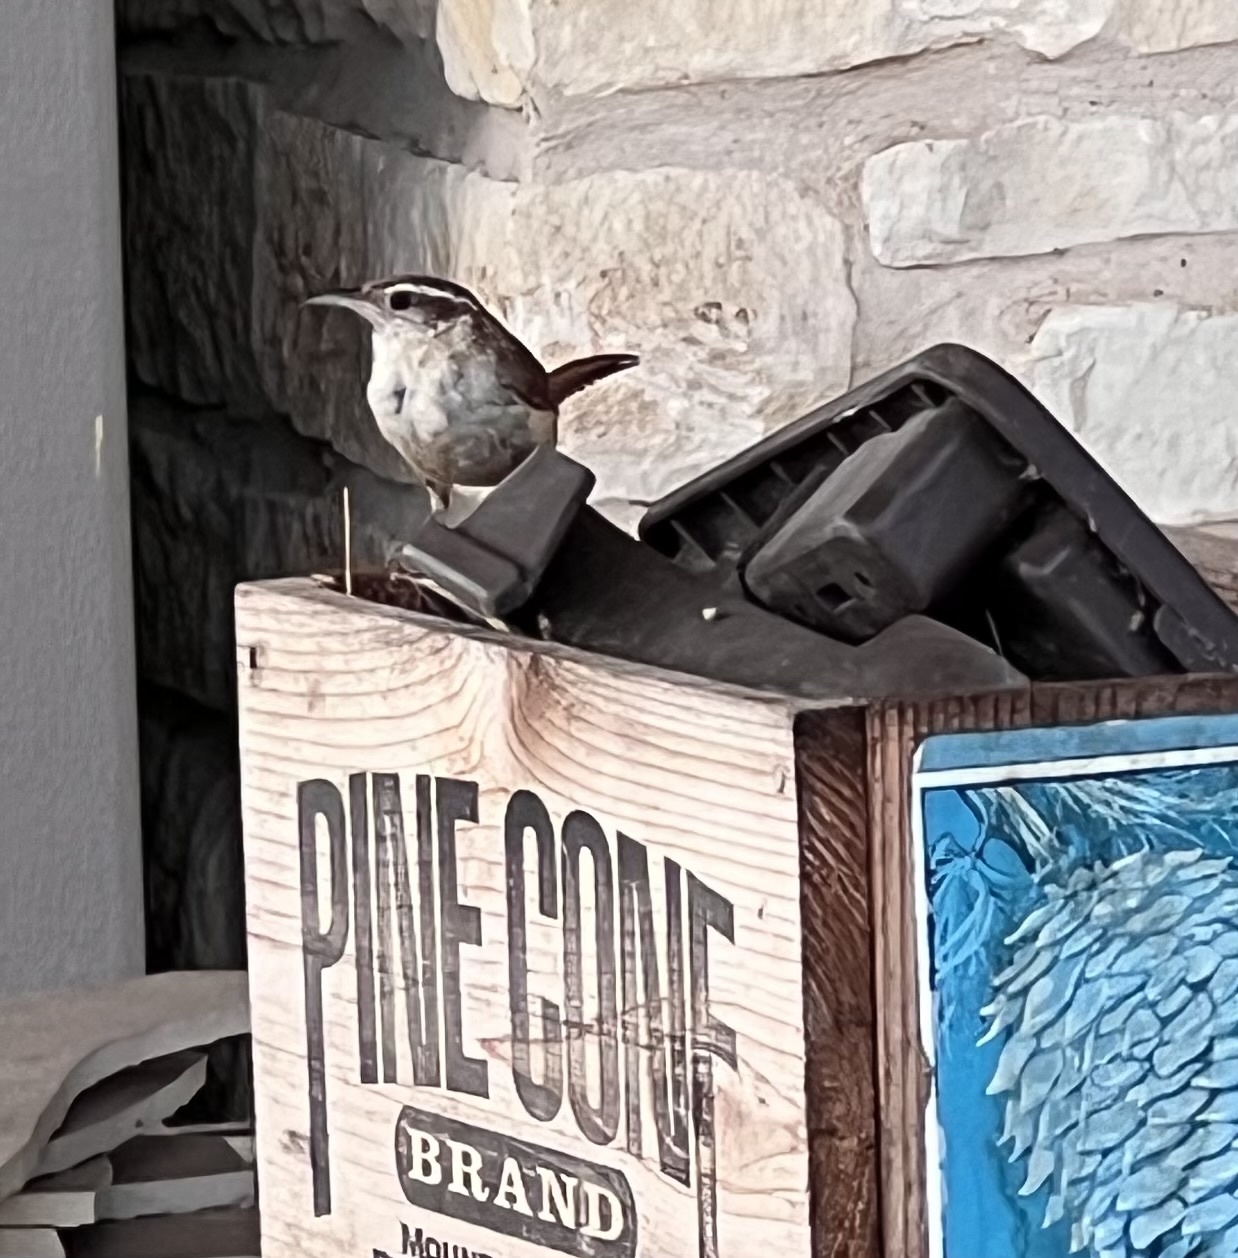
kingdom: Animalia
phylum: Chordata
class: Aves
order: Passeriformes
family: Troglodytidae
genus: Thryothorus
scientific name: Thryothorus ludovicianus
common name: Carolina wren
